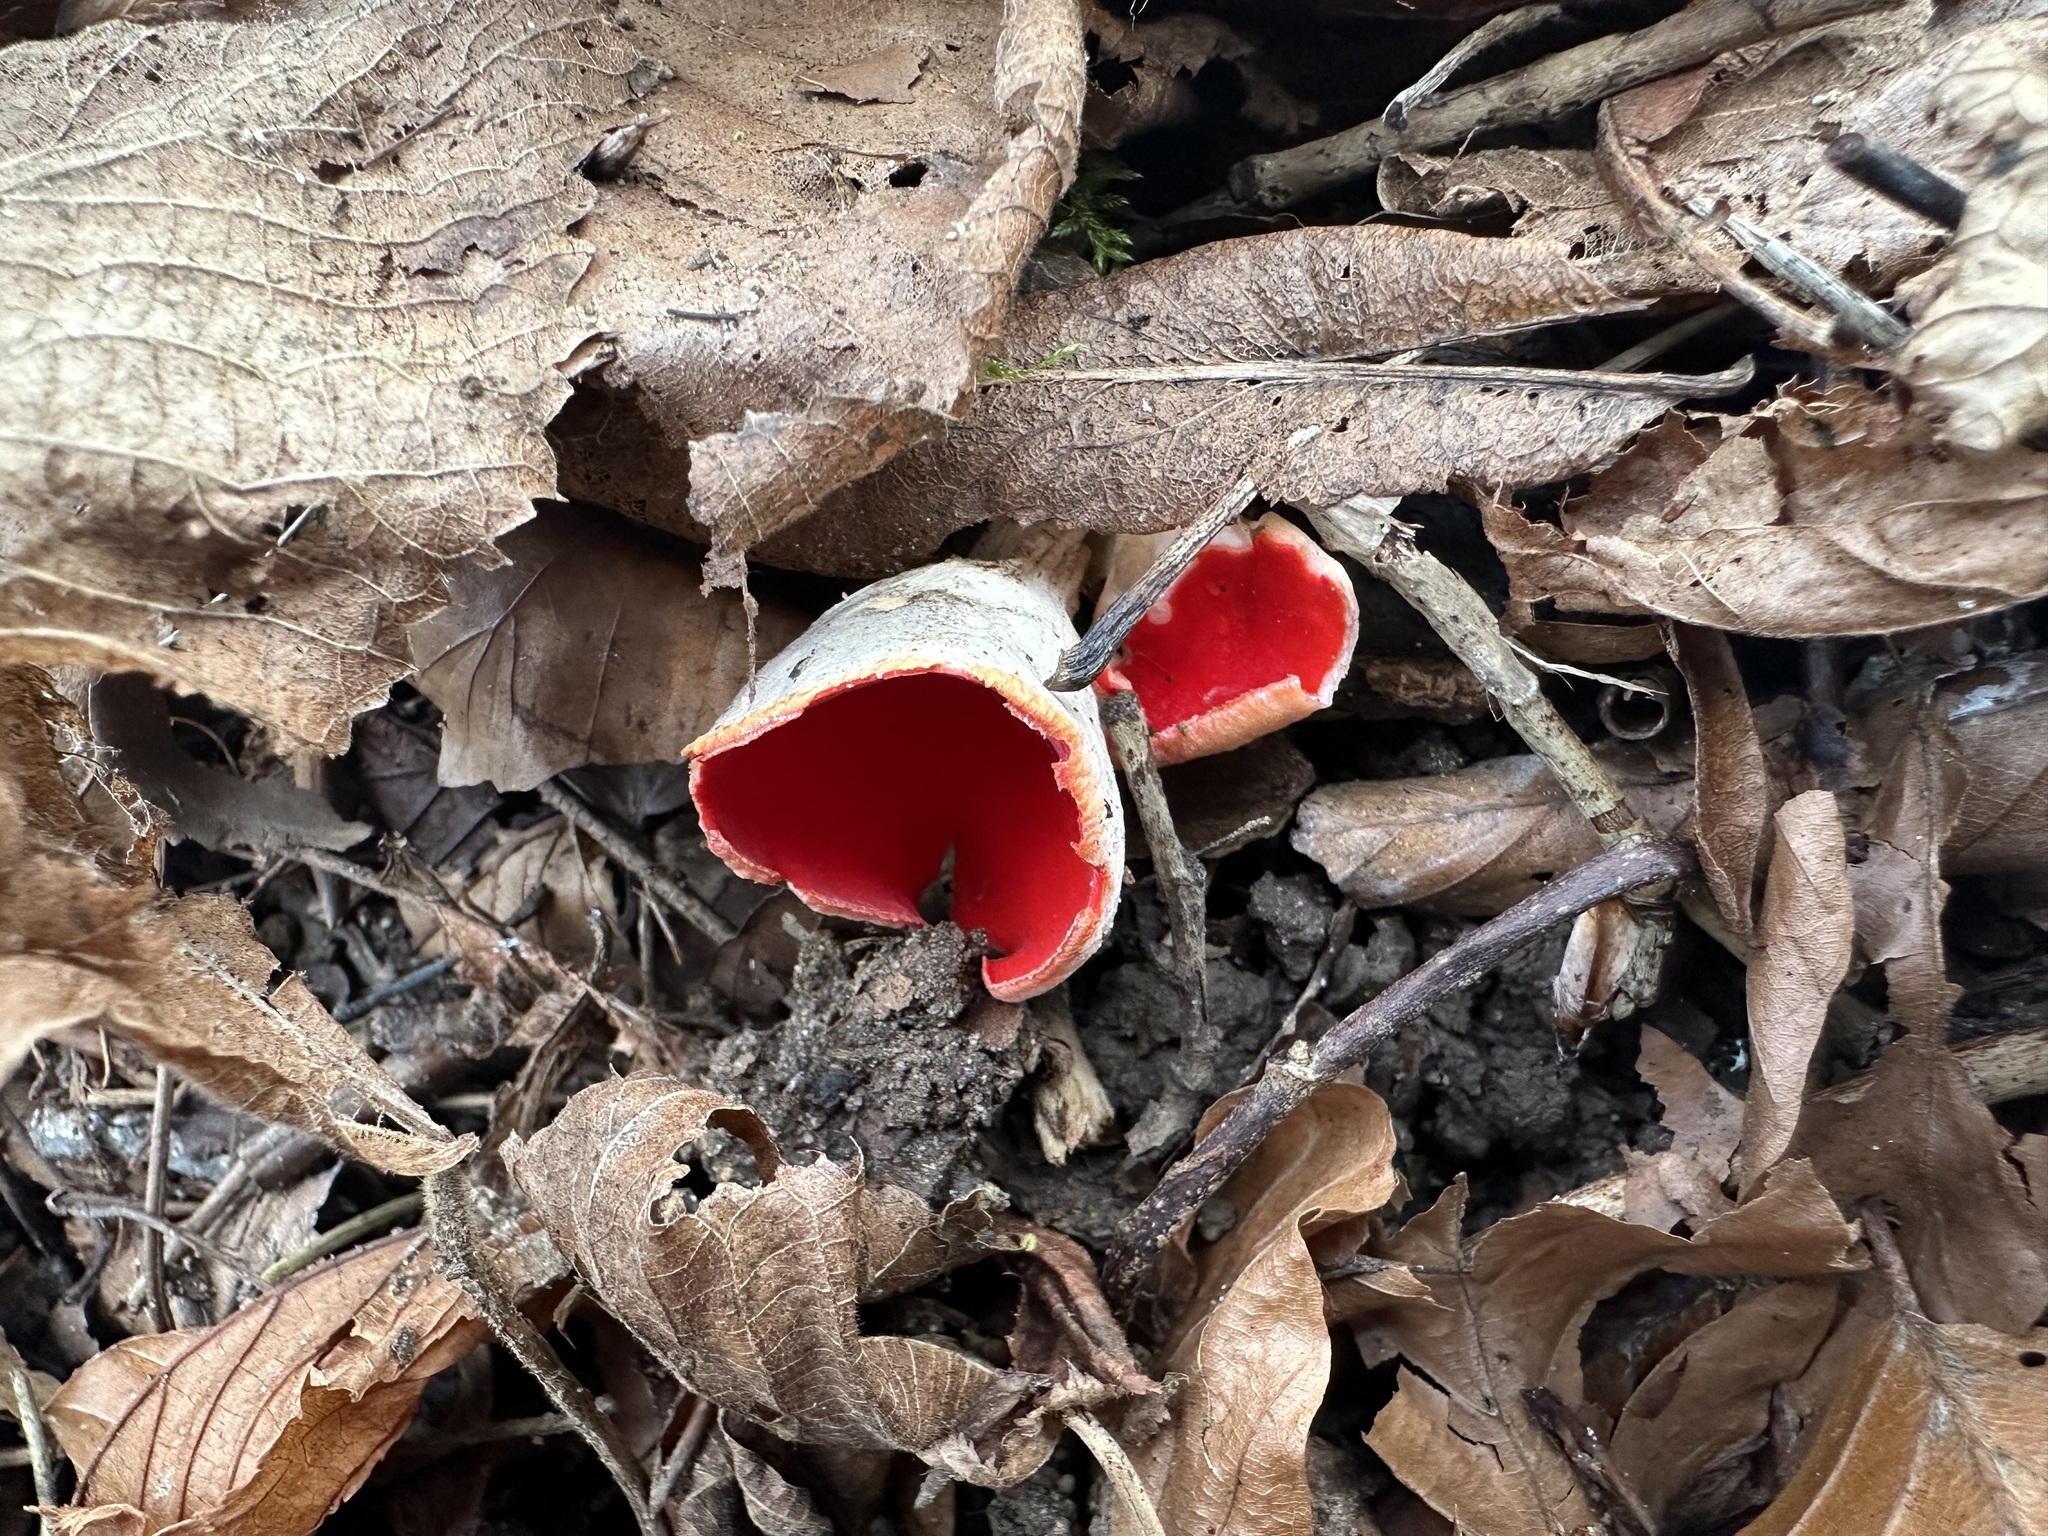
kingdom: Fungi
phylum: Ascomycota
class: Pezizomycetes
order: Pezizales
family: Sarcoscyphaceae
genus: Sarcoscypha
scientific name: Sarcoscypha jurana
